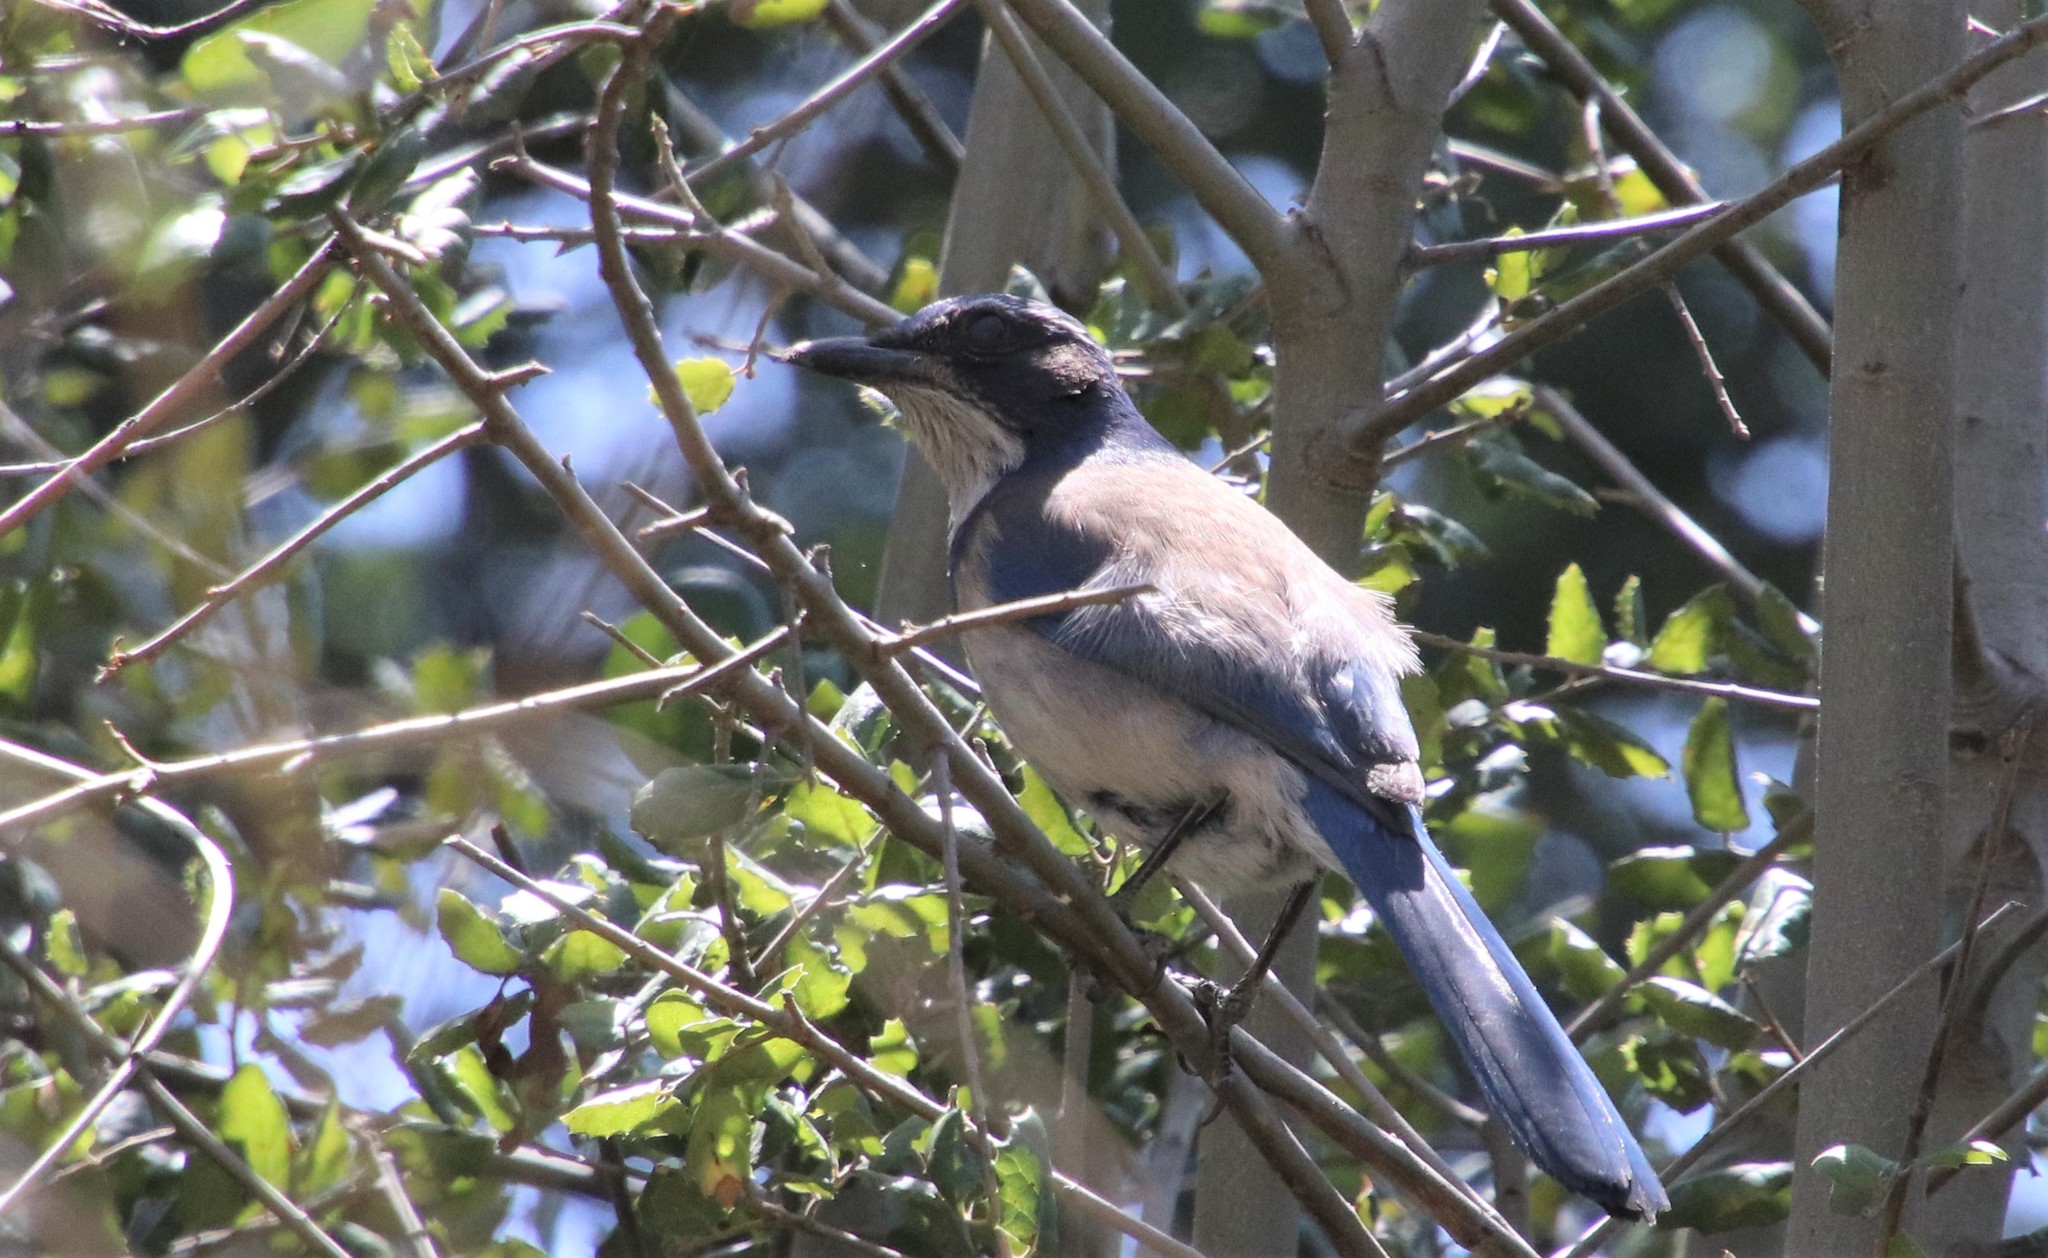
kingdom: Animalia
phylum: Chordata
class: Aves
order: Passeriformes
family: Corvidae
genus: Aphelocoma
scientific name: Aphelocoma californica
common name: California scrub-jay
